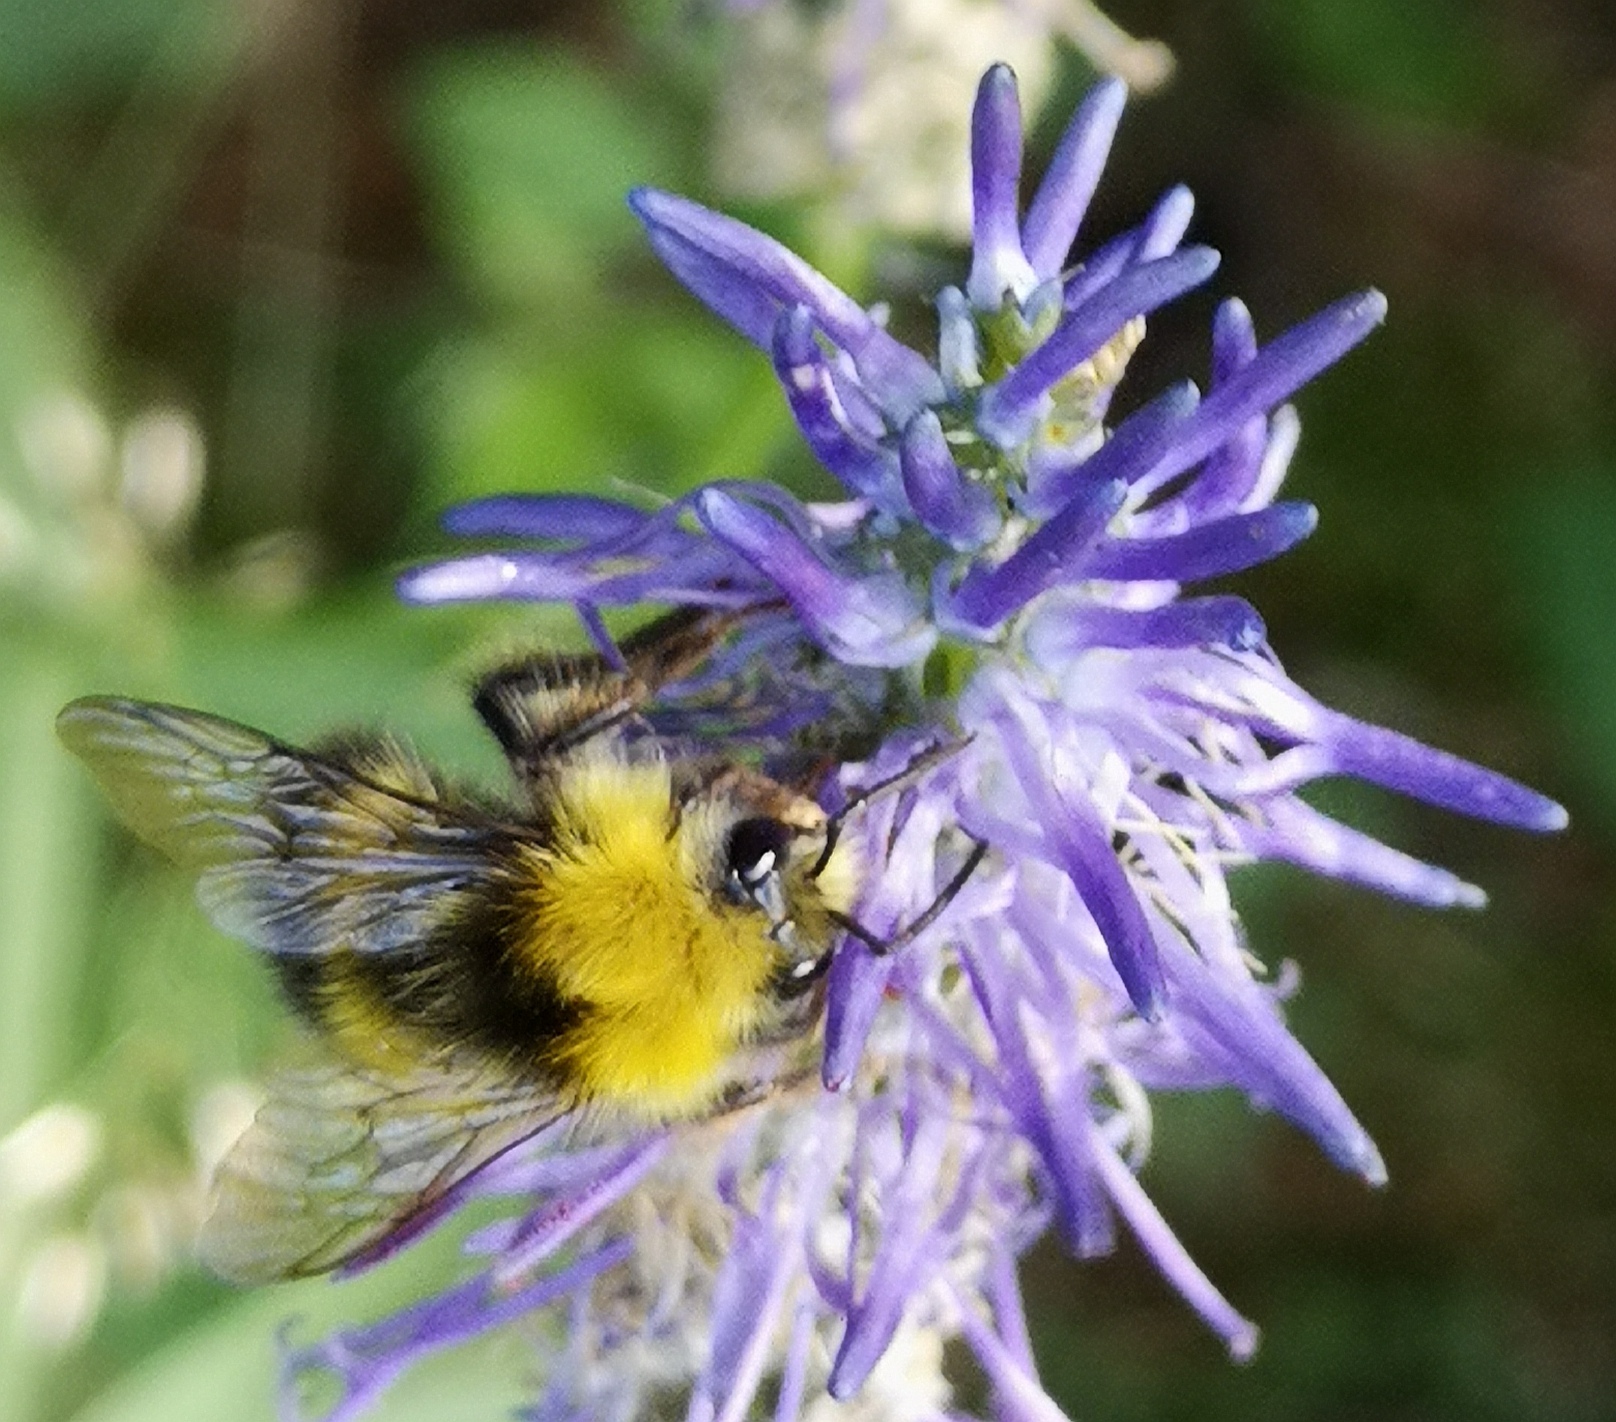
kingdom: Animalia
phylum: Arthropoda
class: Insecta
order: Hymenoptera
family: Apidae
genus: Bombus
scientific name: Bombus pratorum
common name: Early humble-bee
